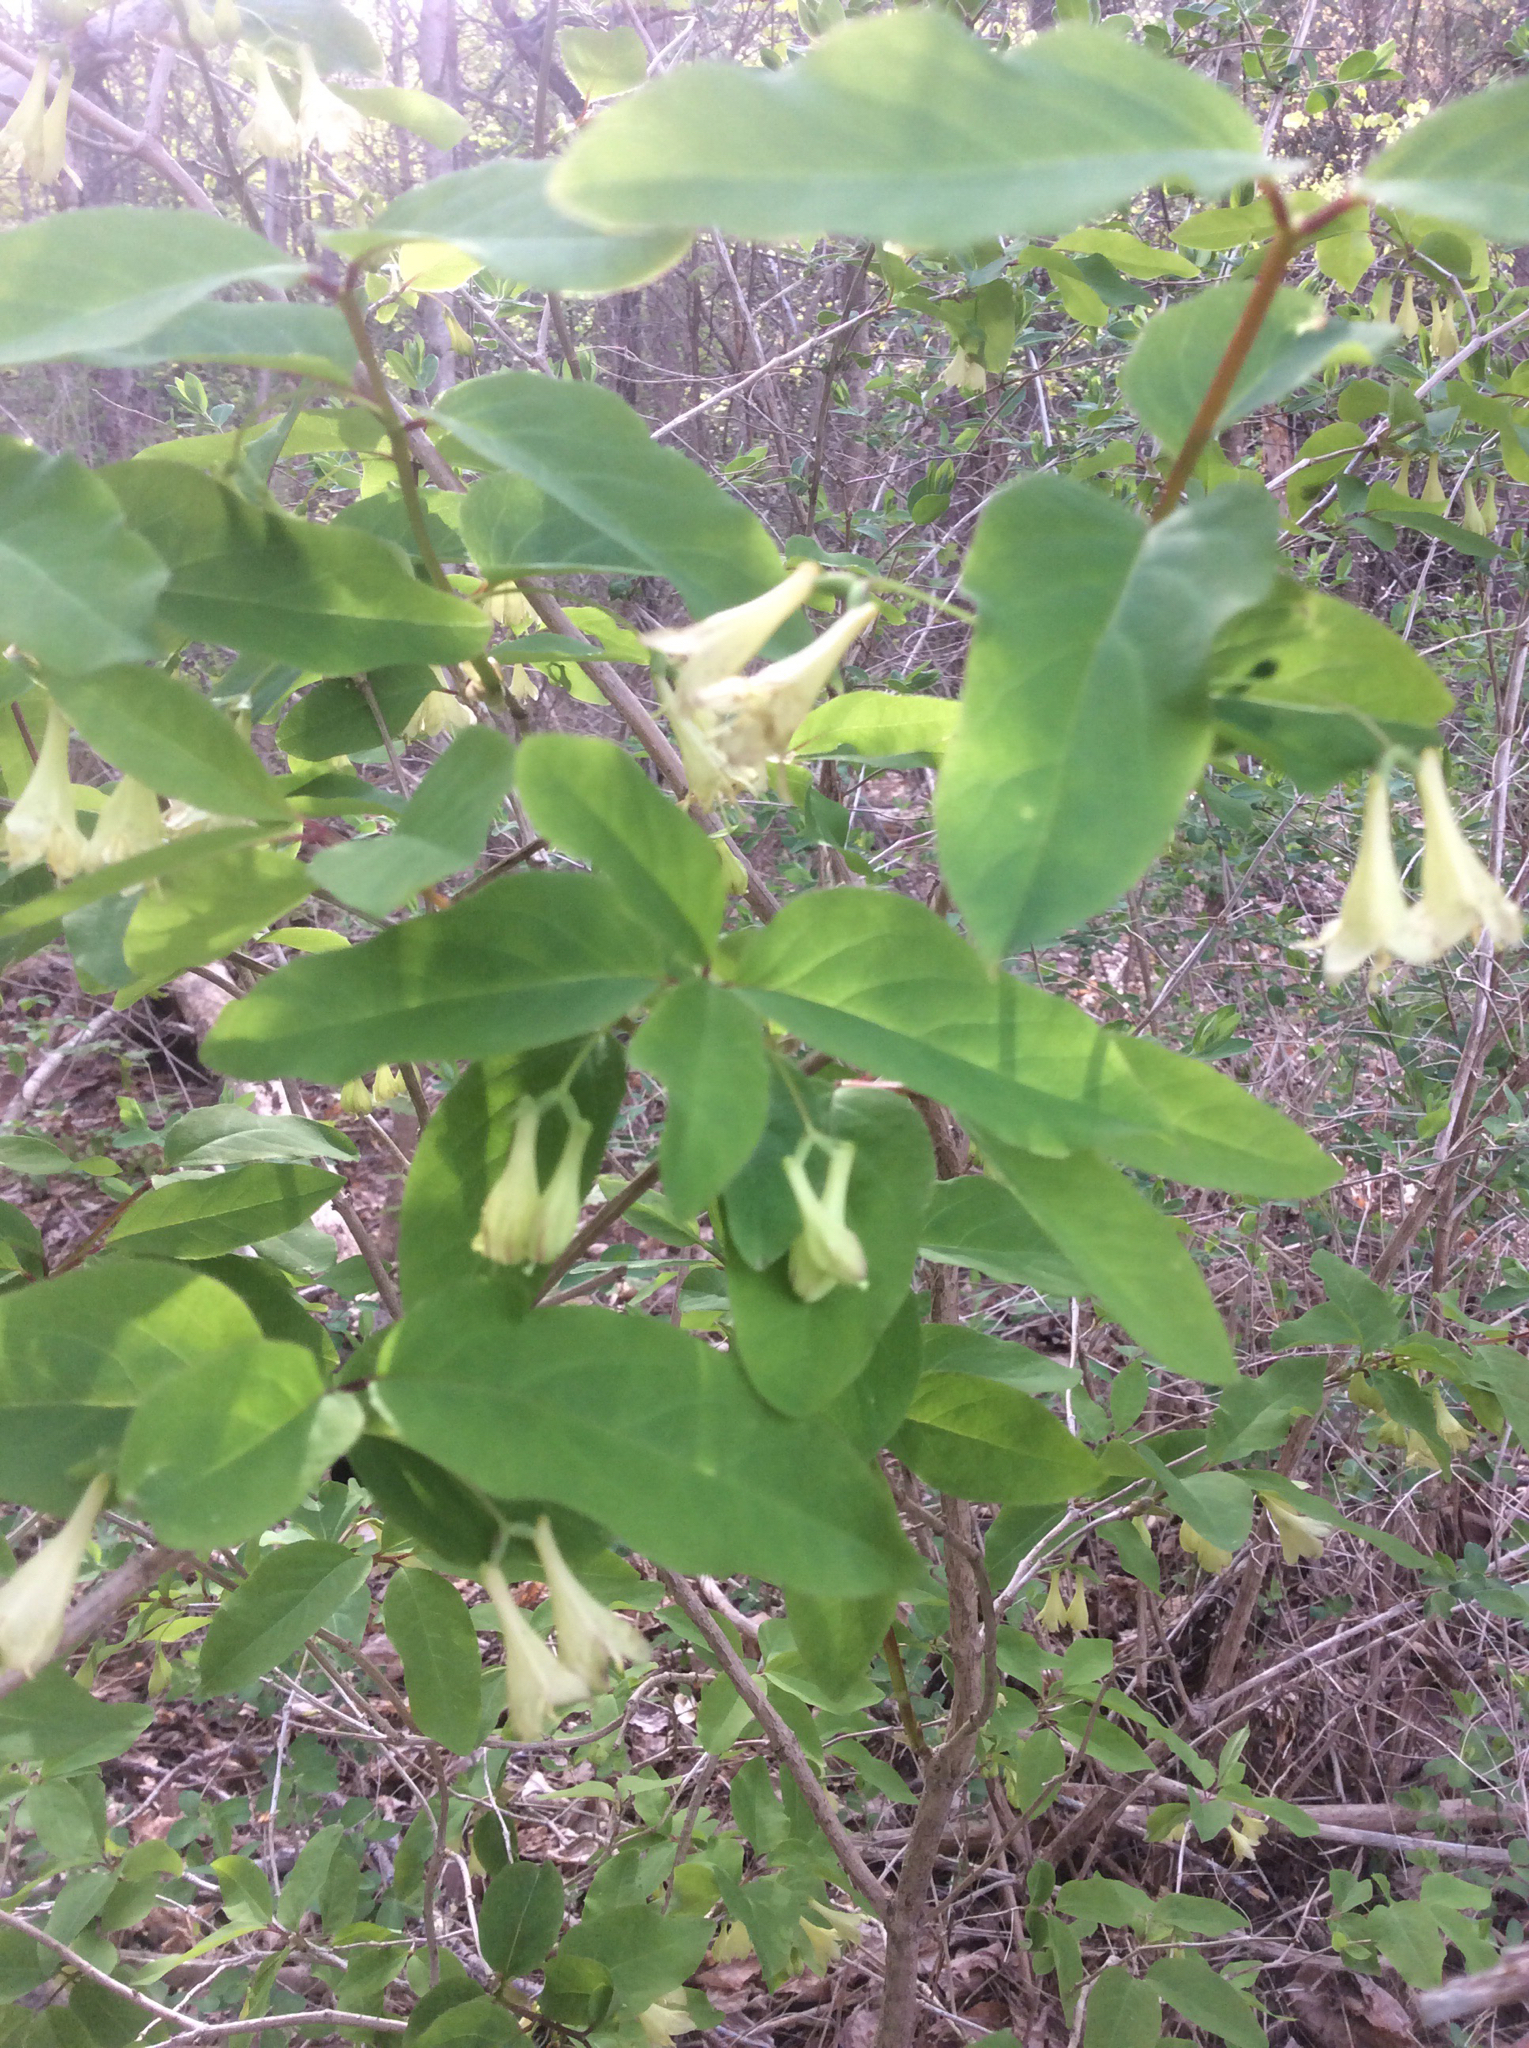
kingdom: Plantae
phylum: Tracheophyta
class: Magnoliopsida
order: Dipsacales
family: Caprifoliaceae
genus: Lonicera
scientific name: Lonicera canadensis
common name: American fly-honeysuckle
